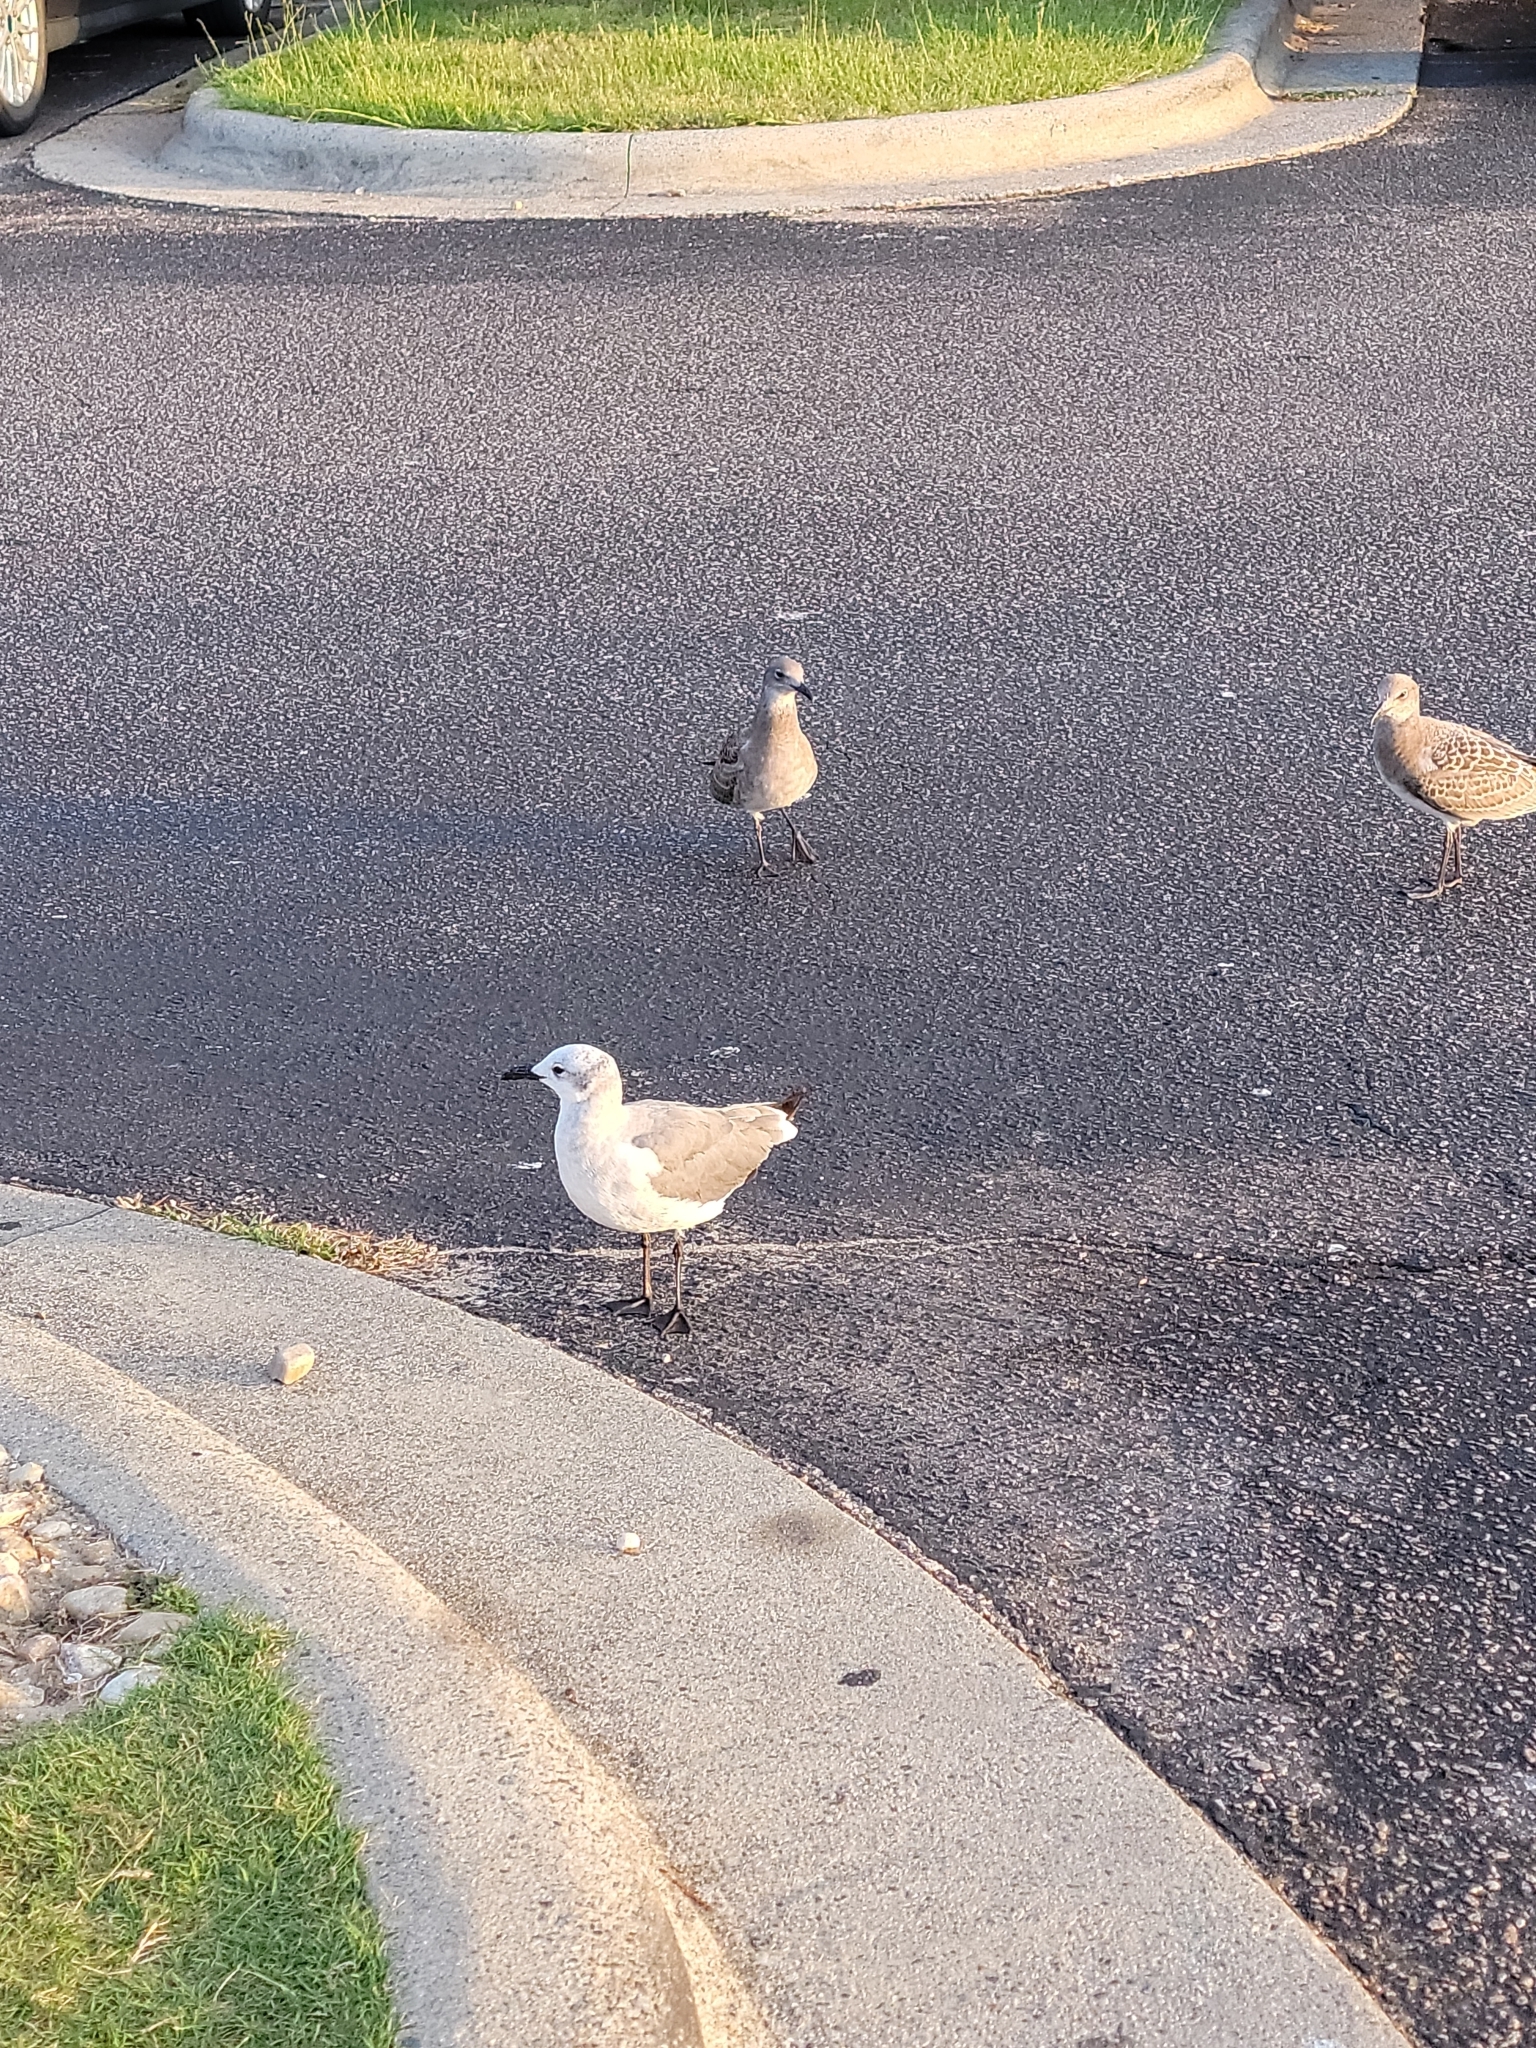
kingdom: Animalia
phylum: Chordata
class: Aves
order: Charadriiformes
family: Laridae
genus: Leucophaeus
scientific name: Leucophaeus atricilla
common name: Laughing gull
